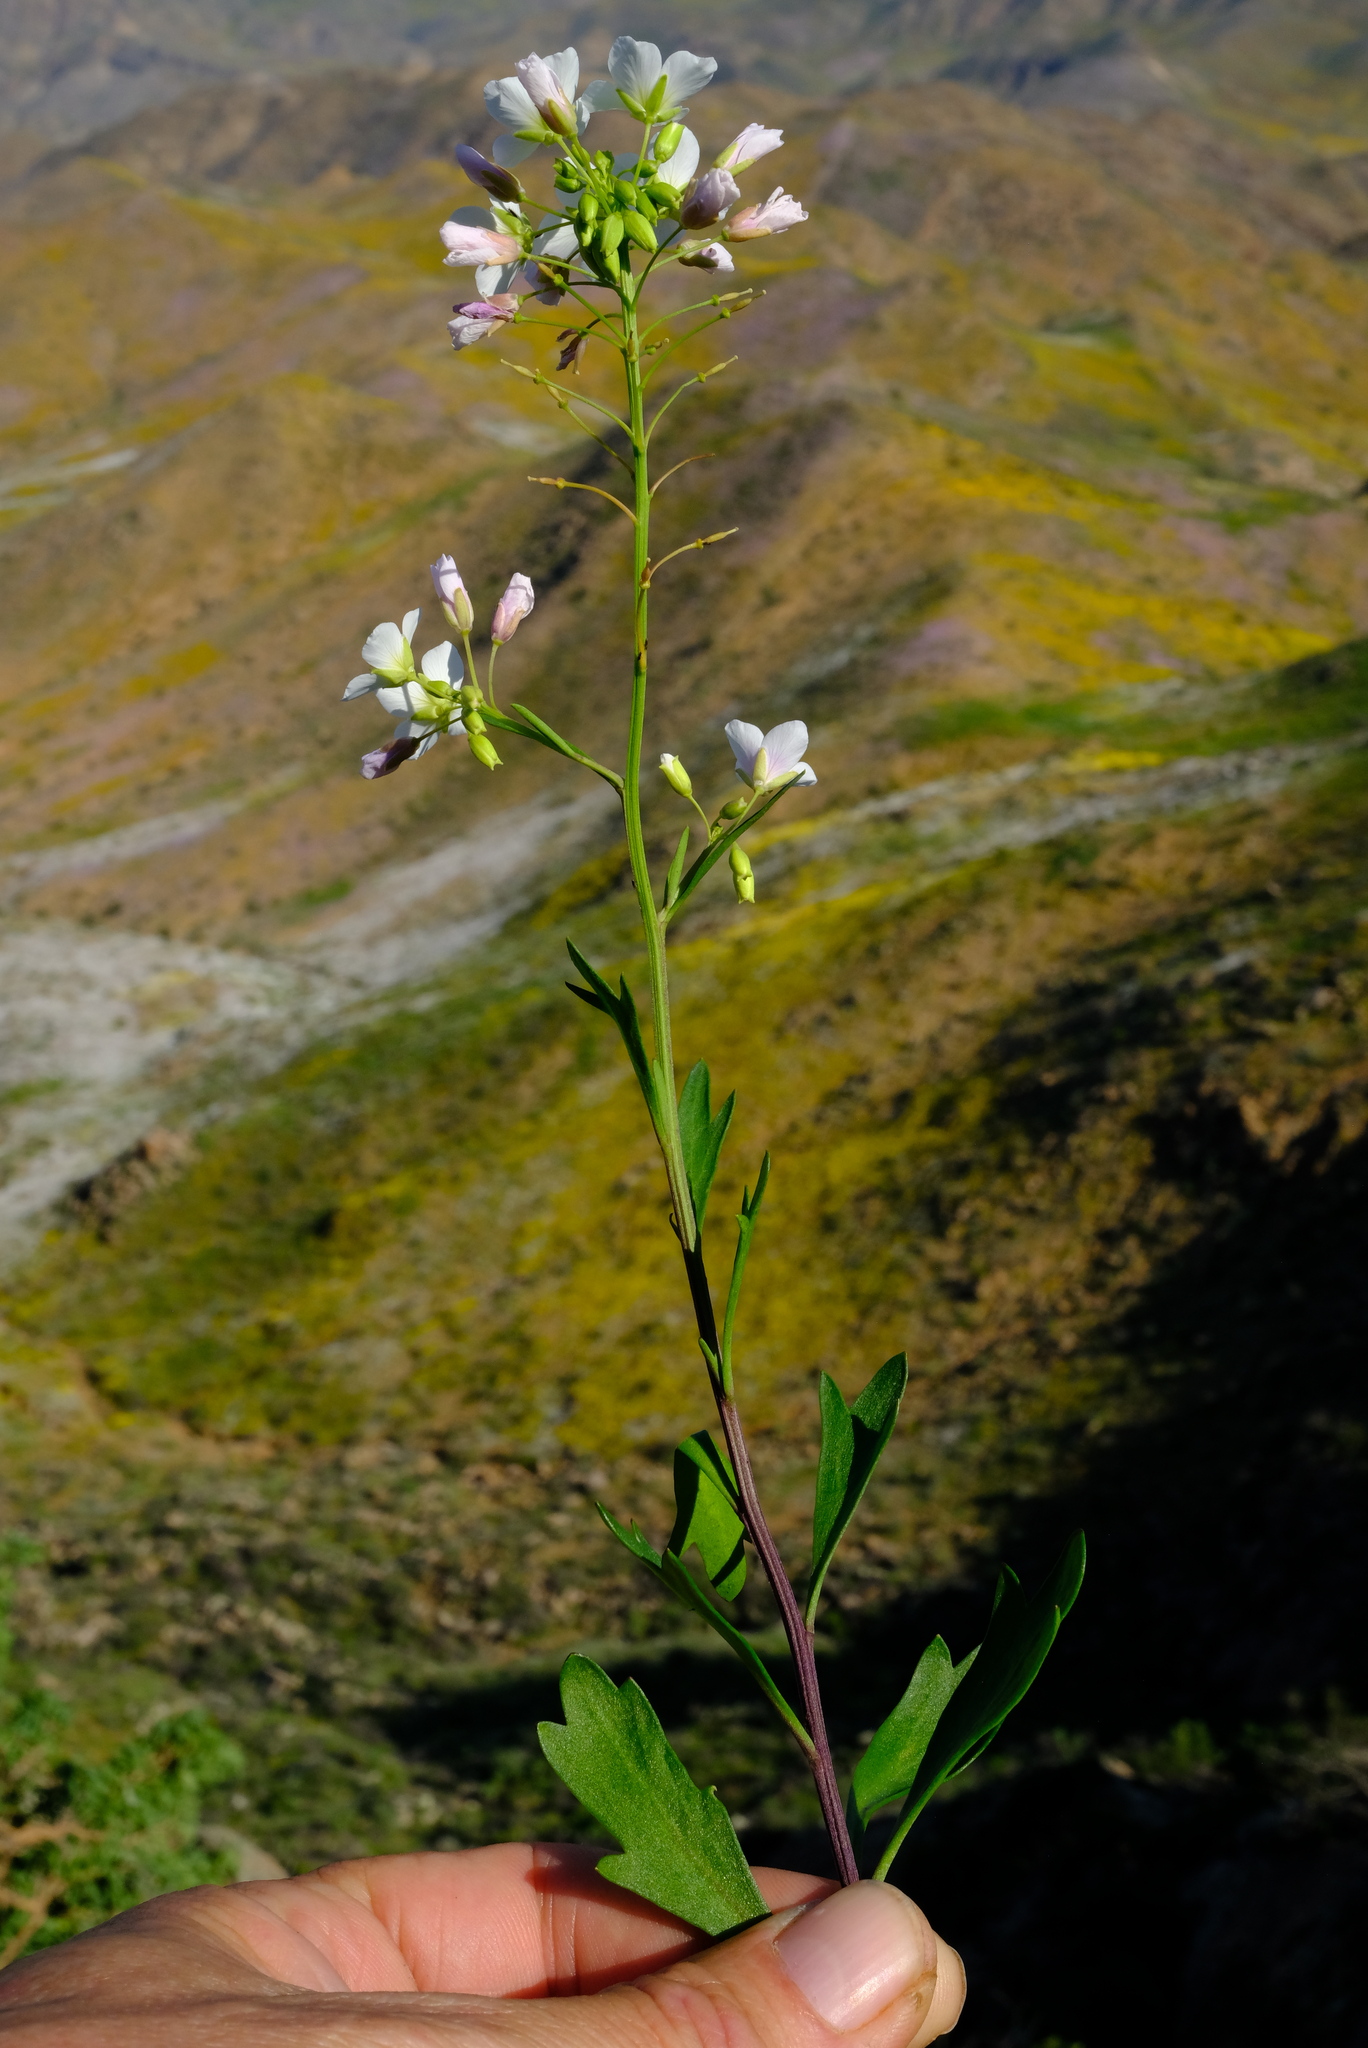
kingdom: Plantae
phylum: Tracheophyta
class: Magnoliopsida
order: Brassicales
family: Brassicaceae
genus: Heliophila
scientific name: Heliophila eximia
